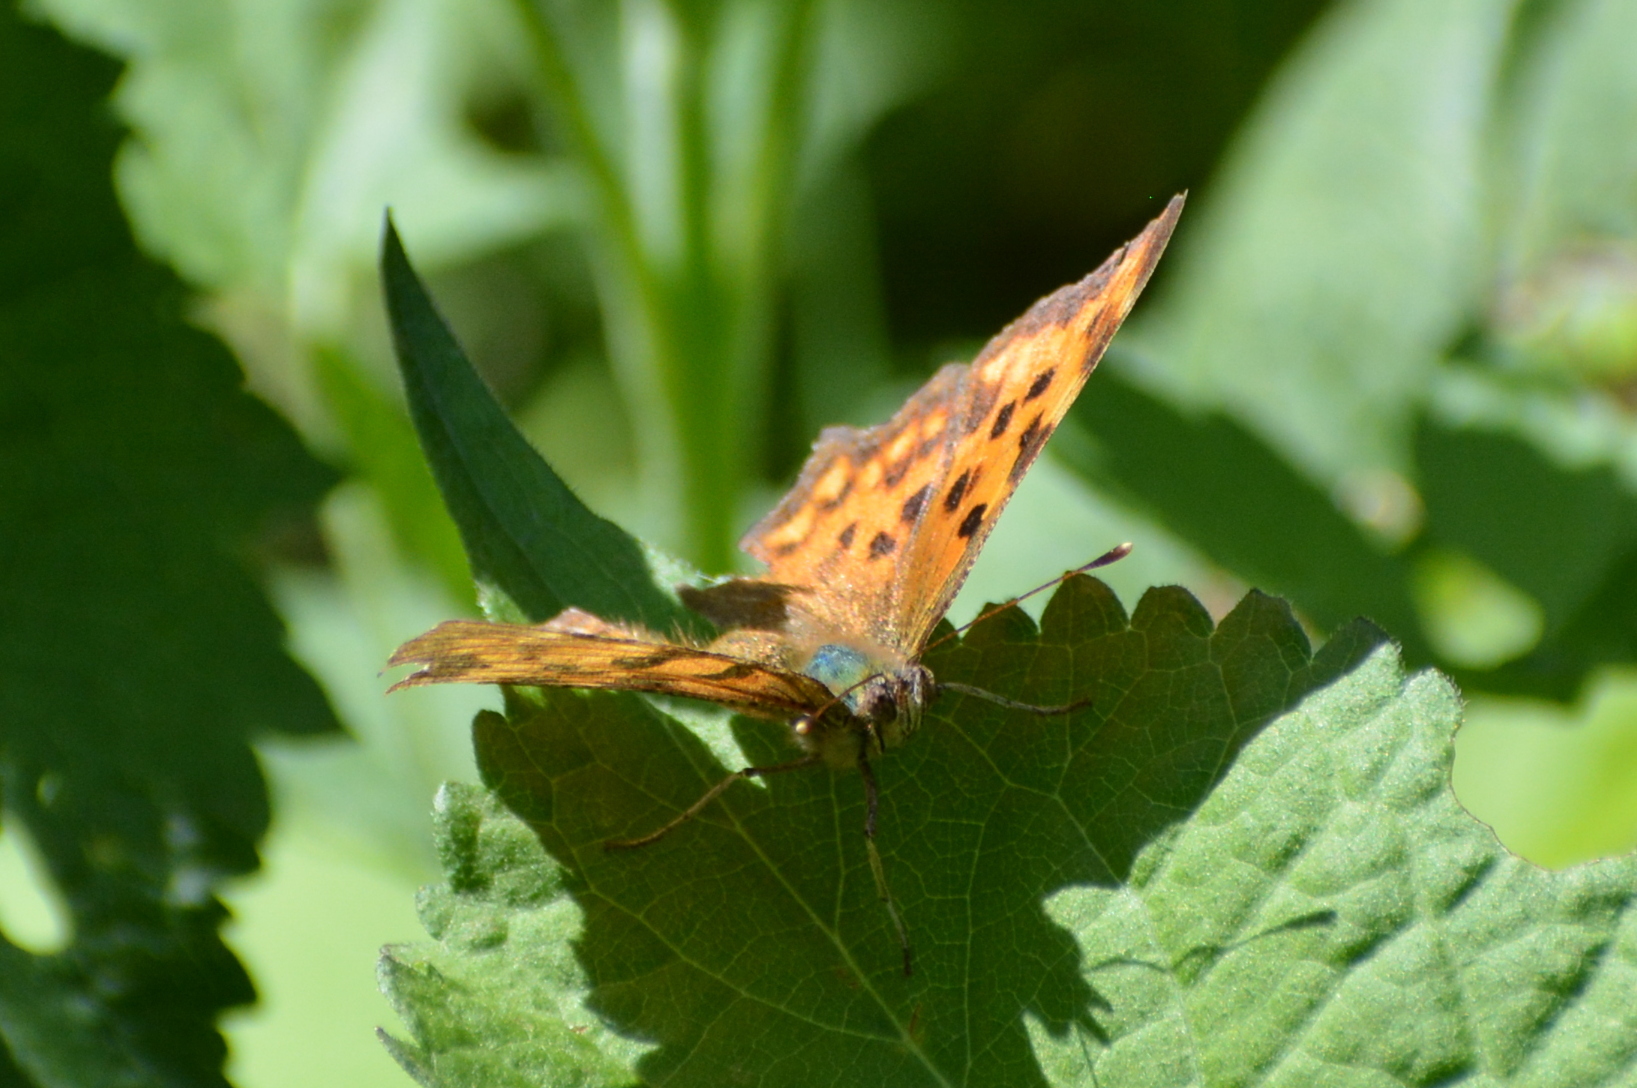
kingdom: Animalia
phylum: Arthropoda
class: Insecta
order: Lepidoptera
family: Nymphalidae
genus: Polygonia
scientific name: Polygonia c-album
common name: Comma
